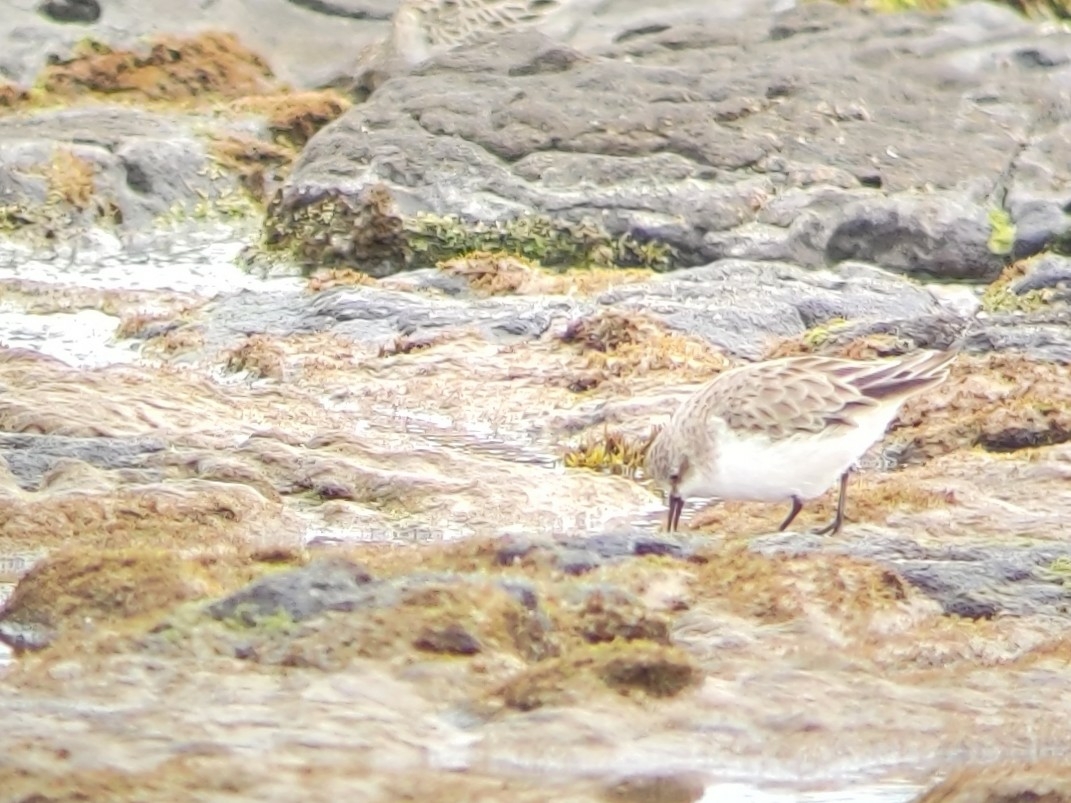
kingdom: Animalia
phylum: Chordata
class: Aves
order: Charadriiformes
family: Scolopacidae
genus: Calidris
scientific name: Calidris ruficollis
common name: Red-necked stint
